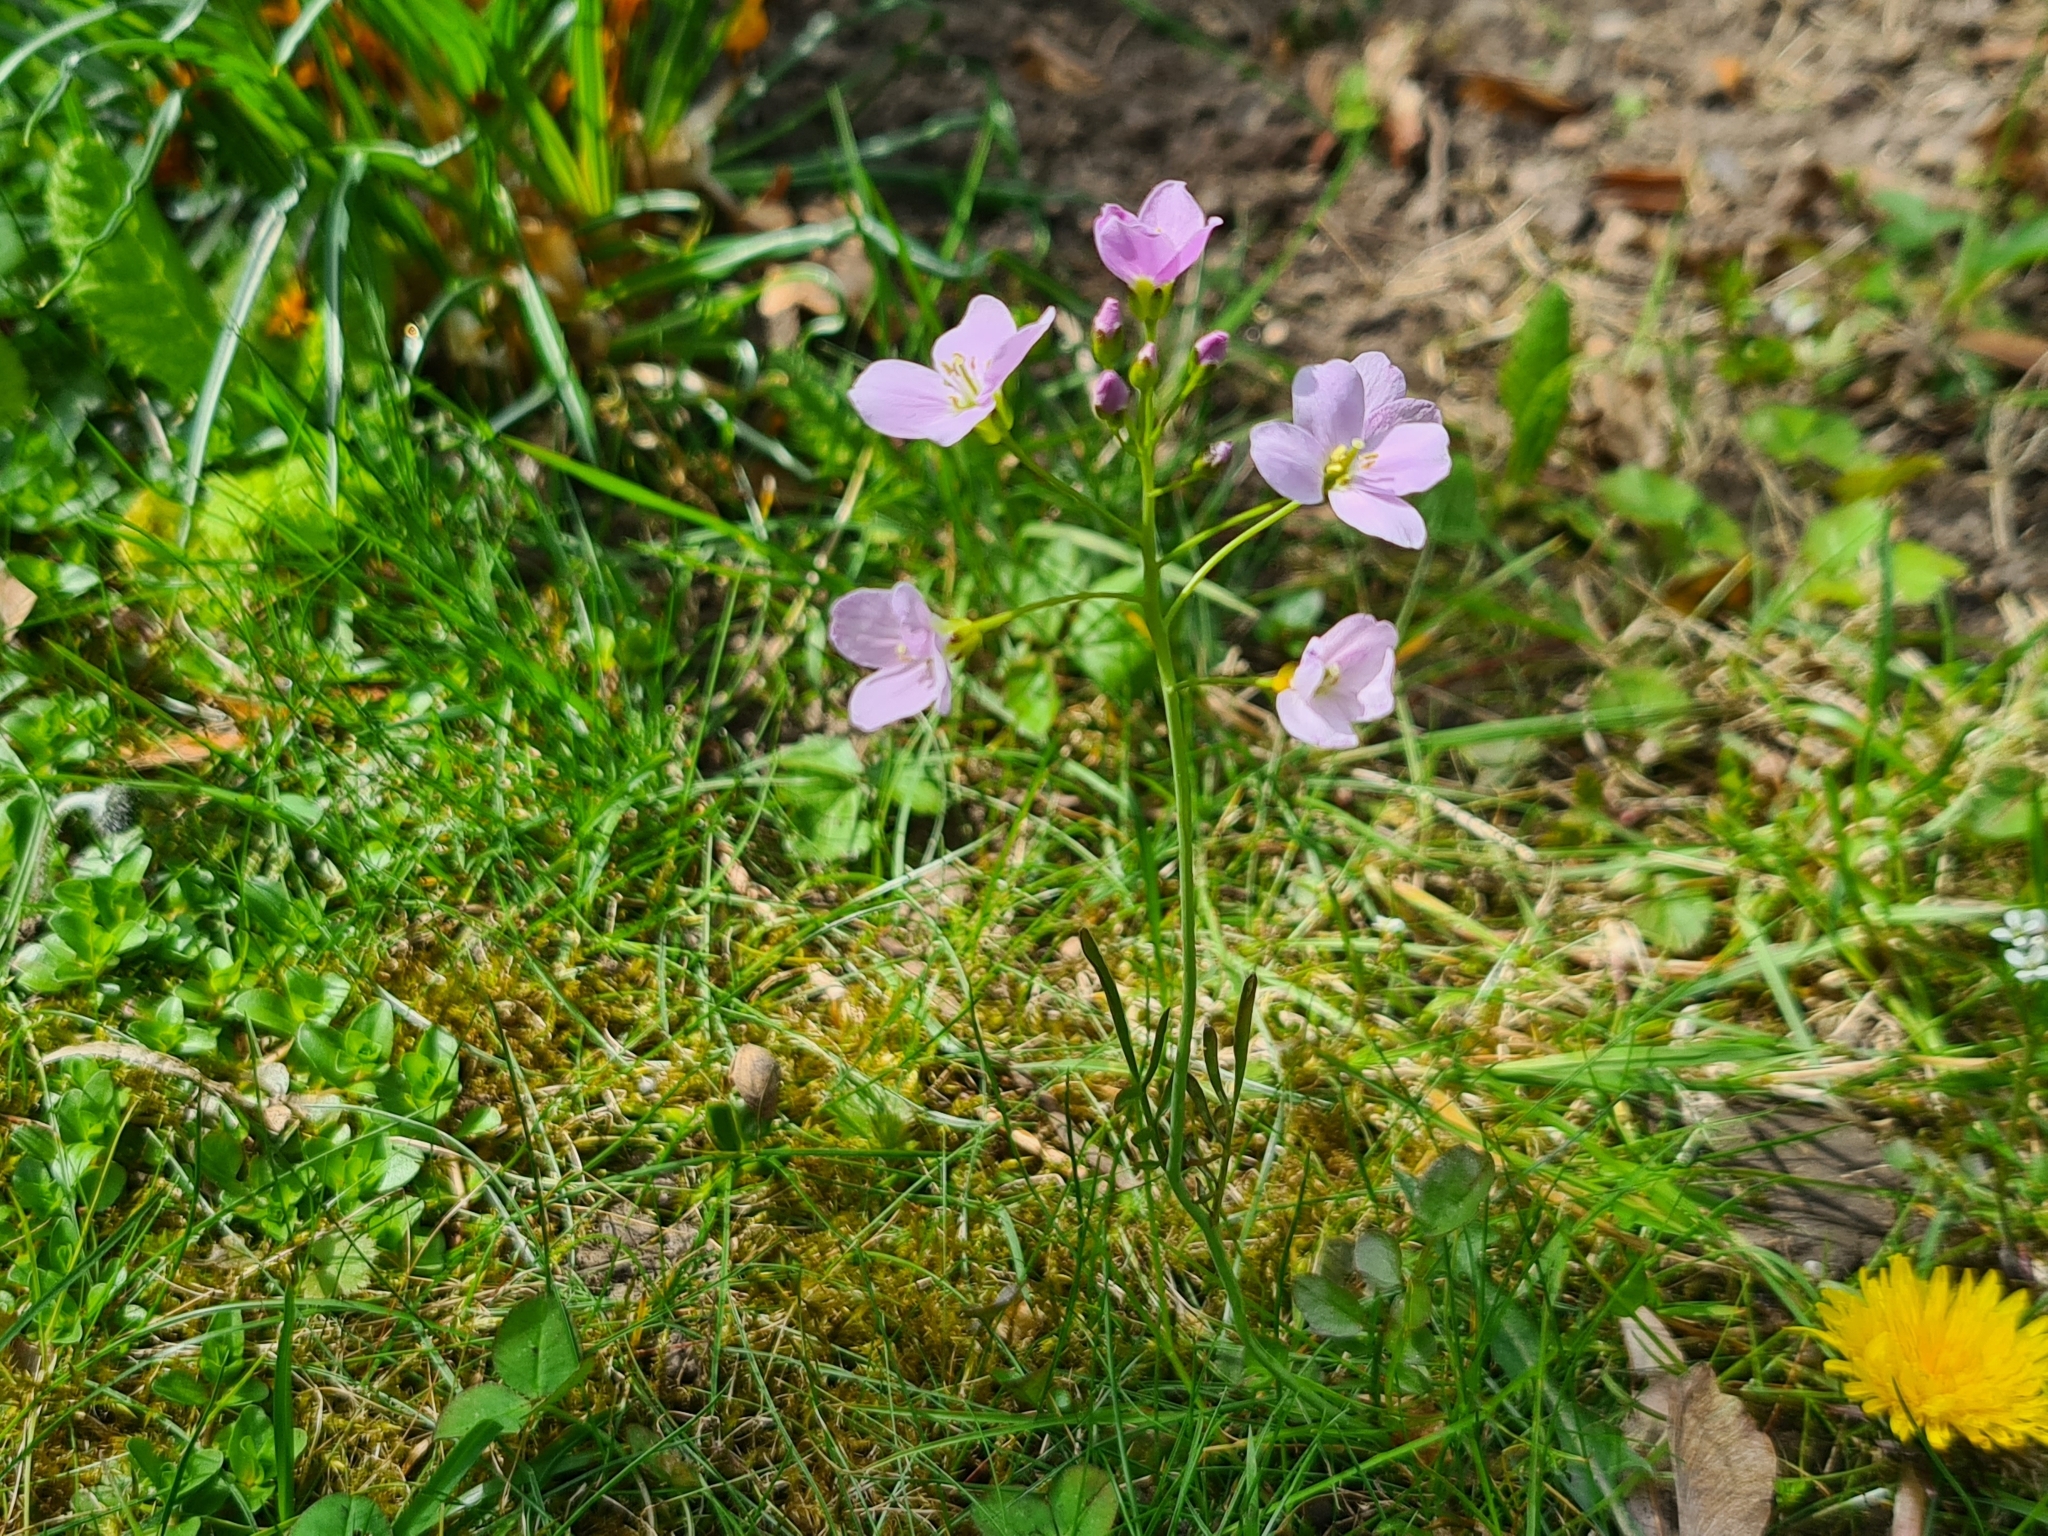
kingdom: Plantae
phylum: Tracheophyta
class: Magnoliopsida
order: Brassicales
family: Brassicaceae
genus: Cardamine
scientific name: Cardamine pratensis
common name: Cuckoo flower
